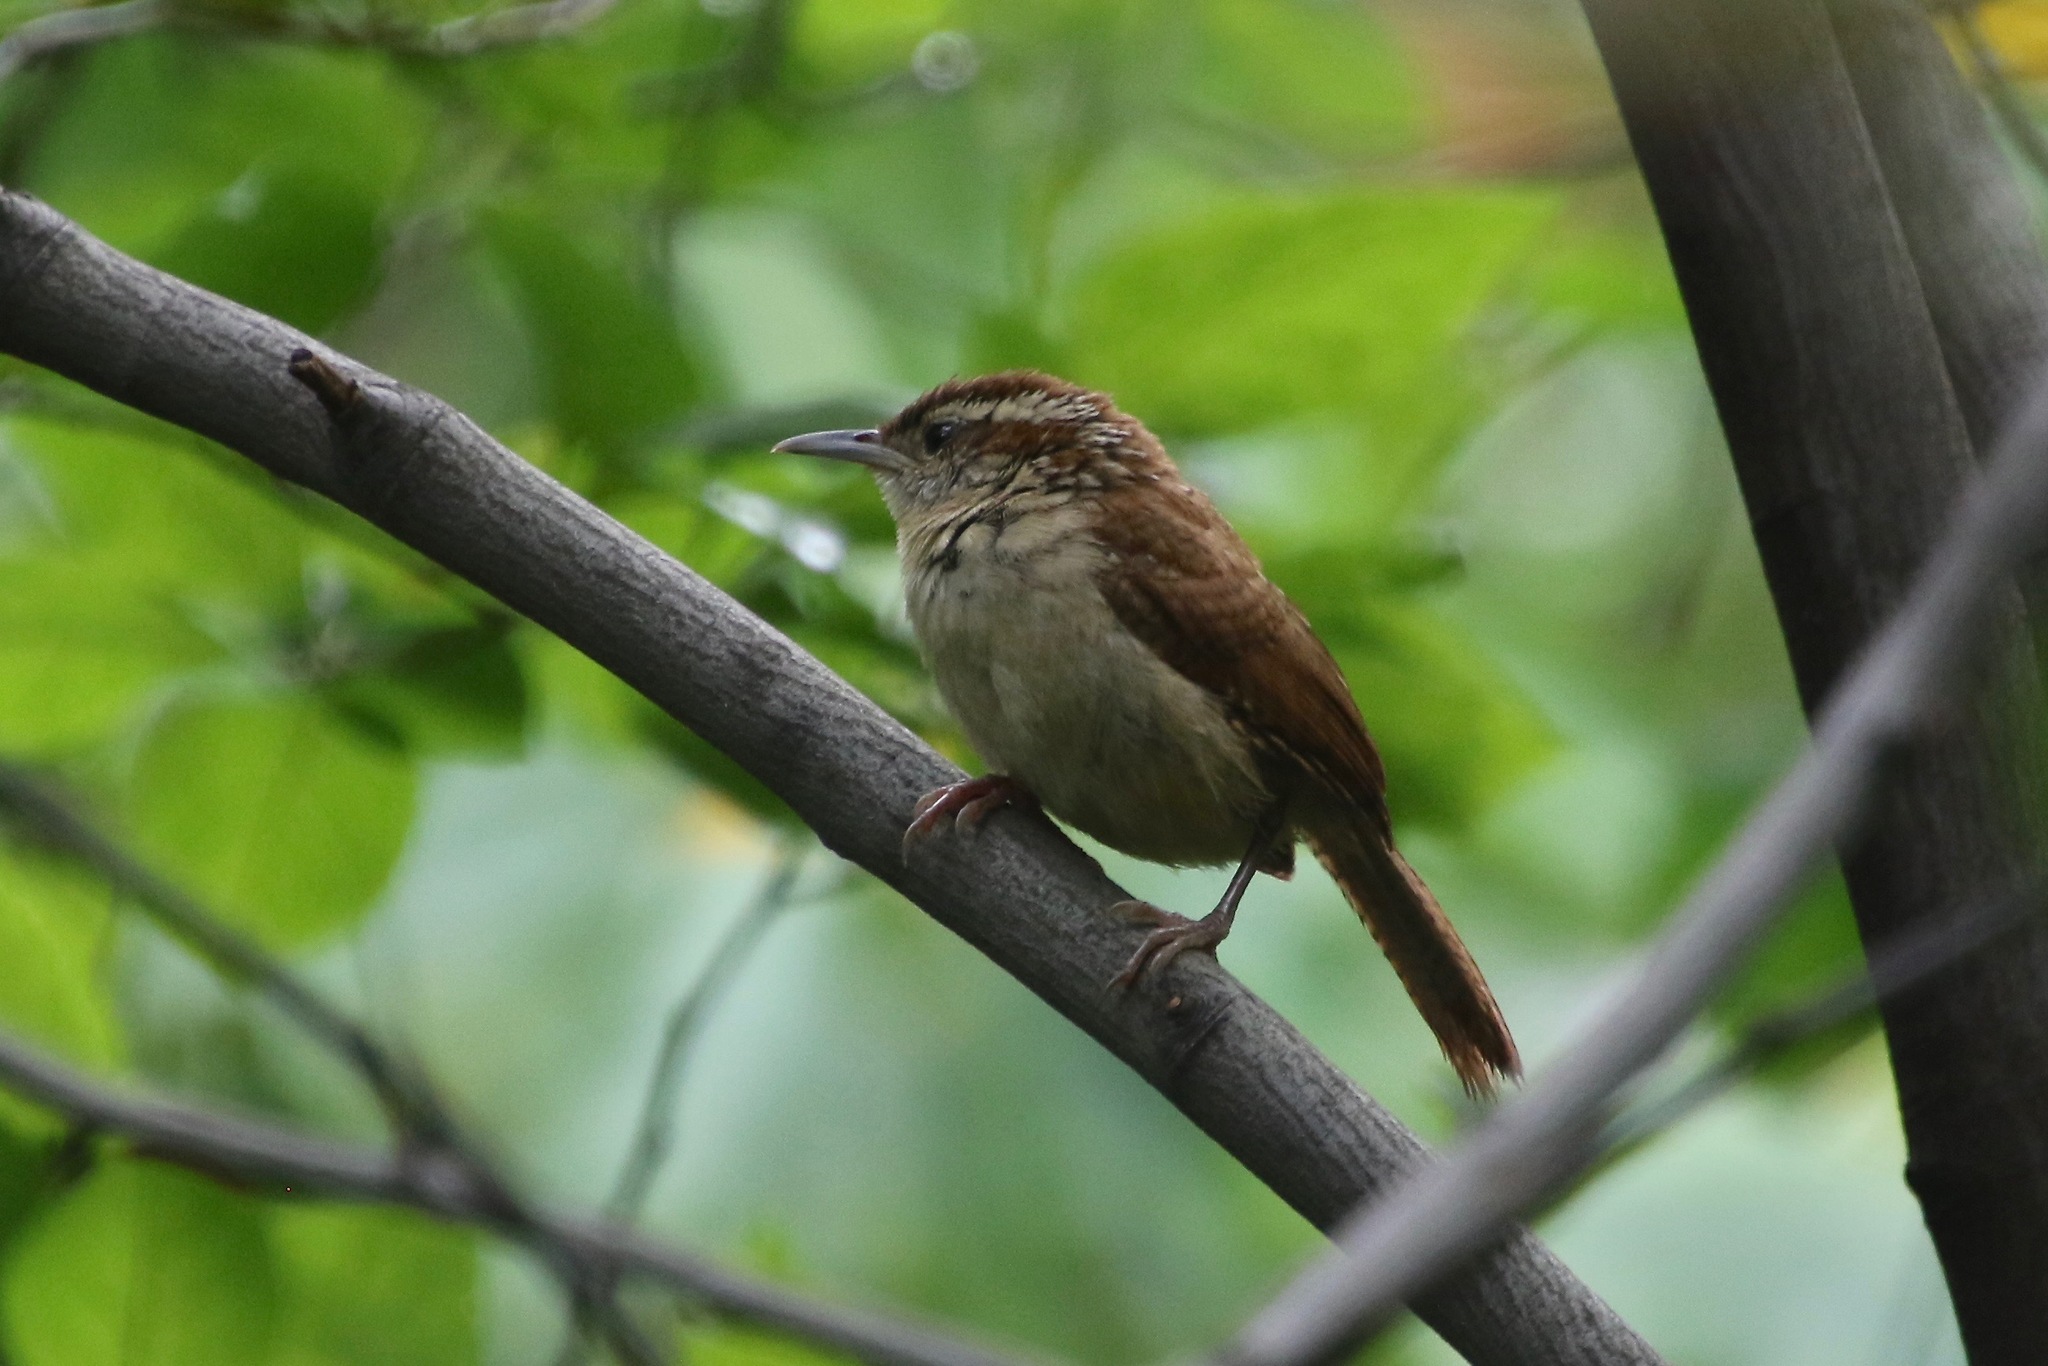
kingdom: Animalia
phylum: Chordata
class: Aves
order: Passeriformes
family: Troglodytidae
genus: Thryothorus
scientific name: Thryothorus ludovicianus
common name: Carolina wren
